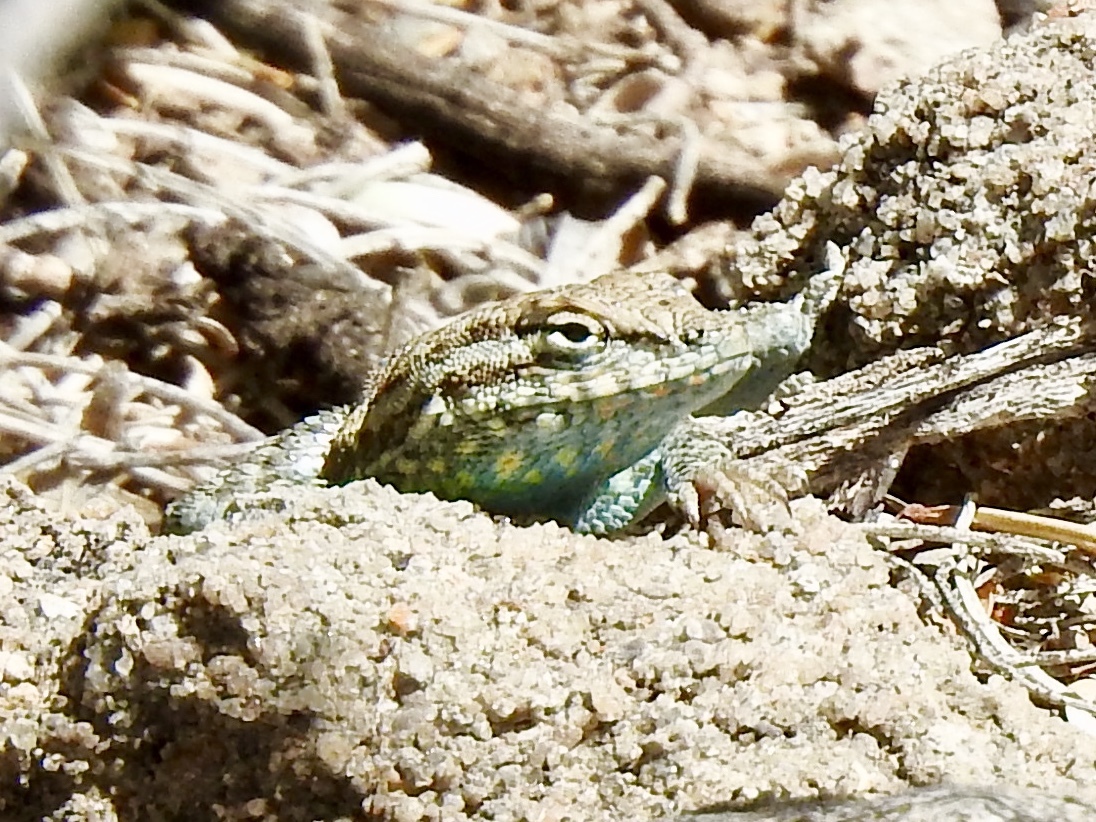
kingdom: Animalia
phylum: Chordata
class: Squamata
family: Phrynosomatidae
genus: Uta
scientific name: Uta stansburiana
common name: Side-blotched lizard
